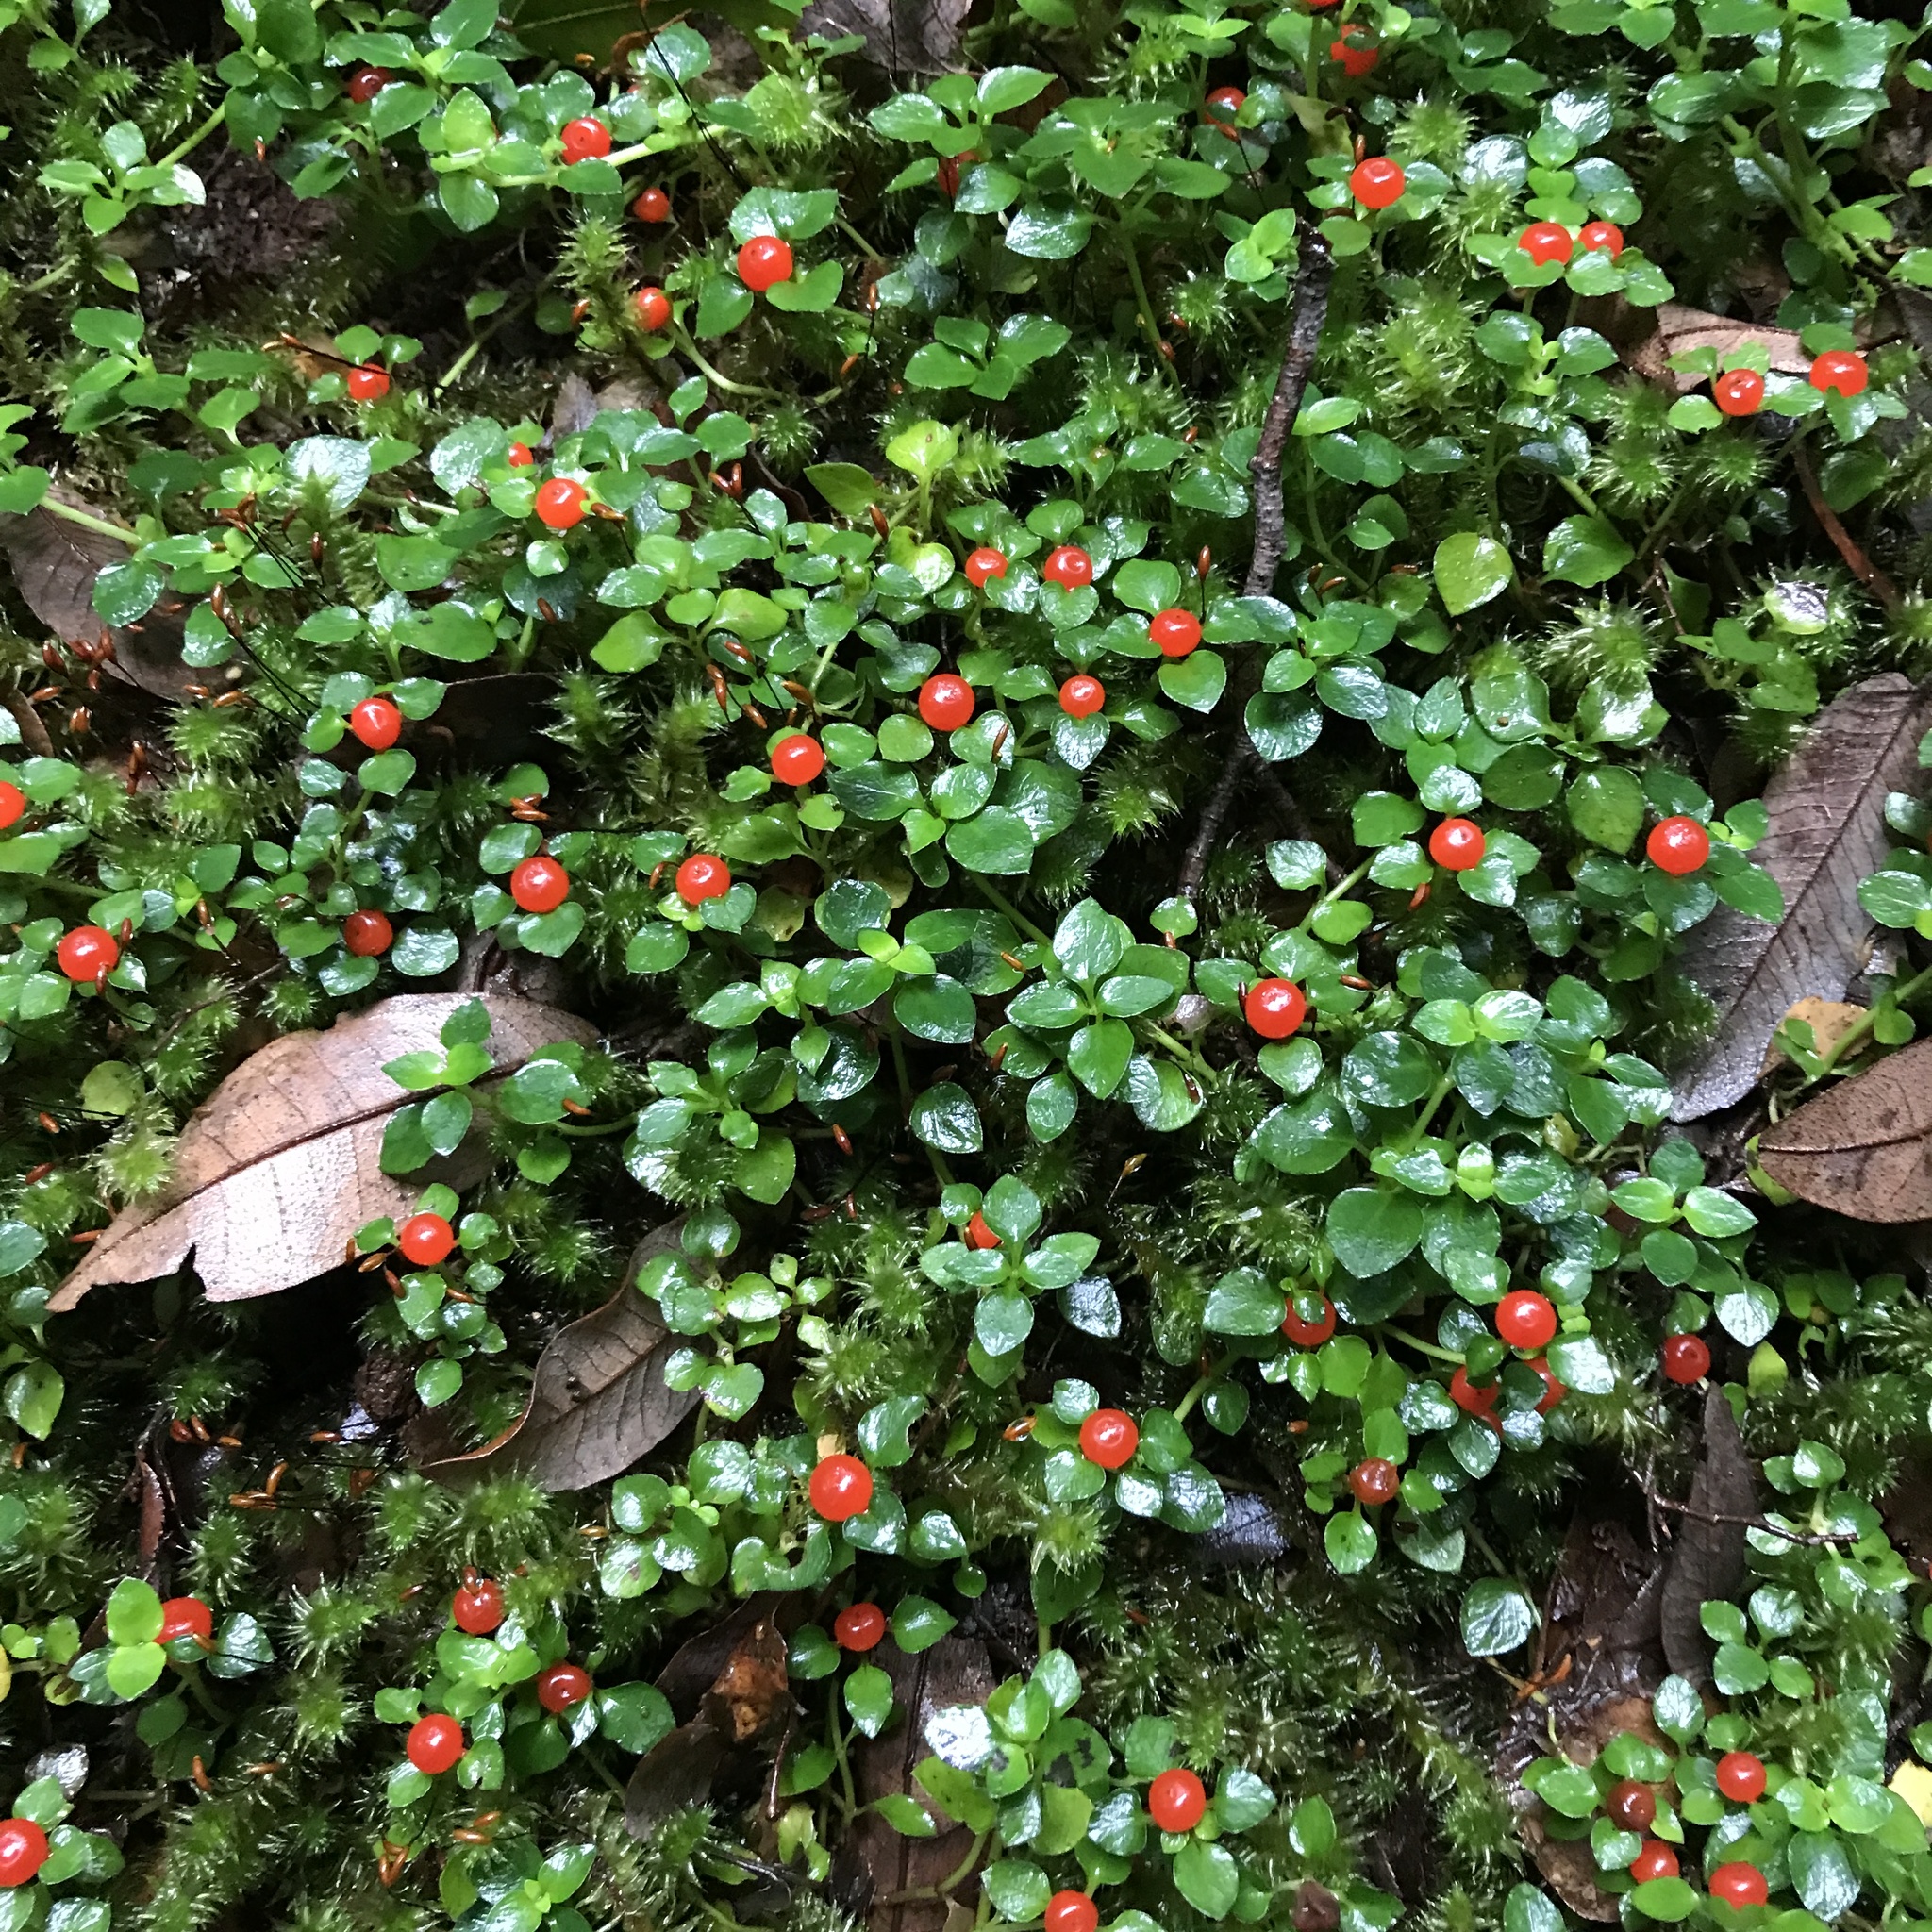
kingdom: Plantae
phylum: Tracheophyta
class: Magnoliopsida
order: Gentianales
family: Rubiaceae
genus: Nertera
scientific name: Nertera granadensis
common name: Beadplant
